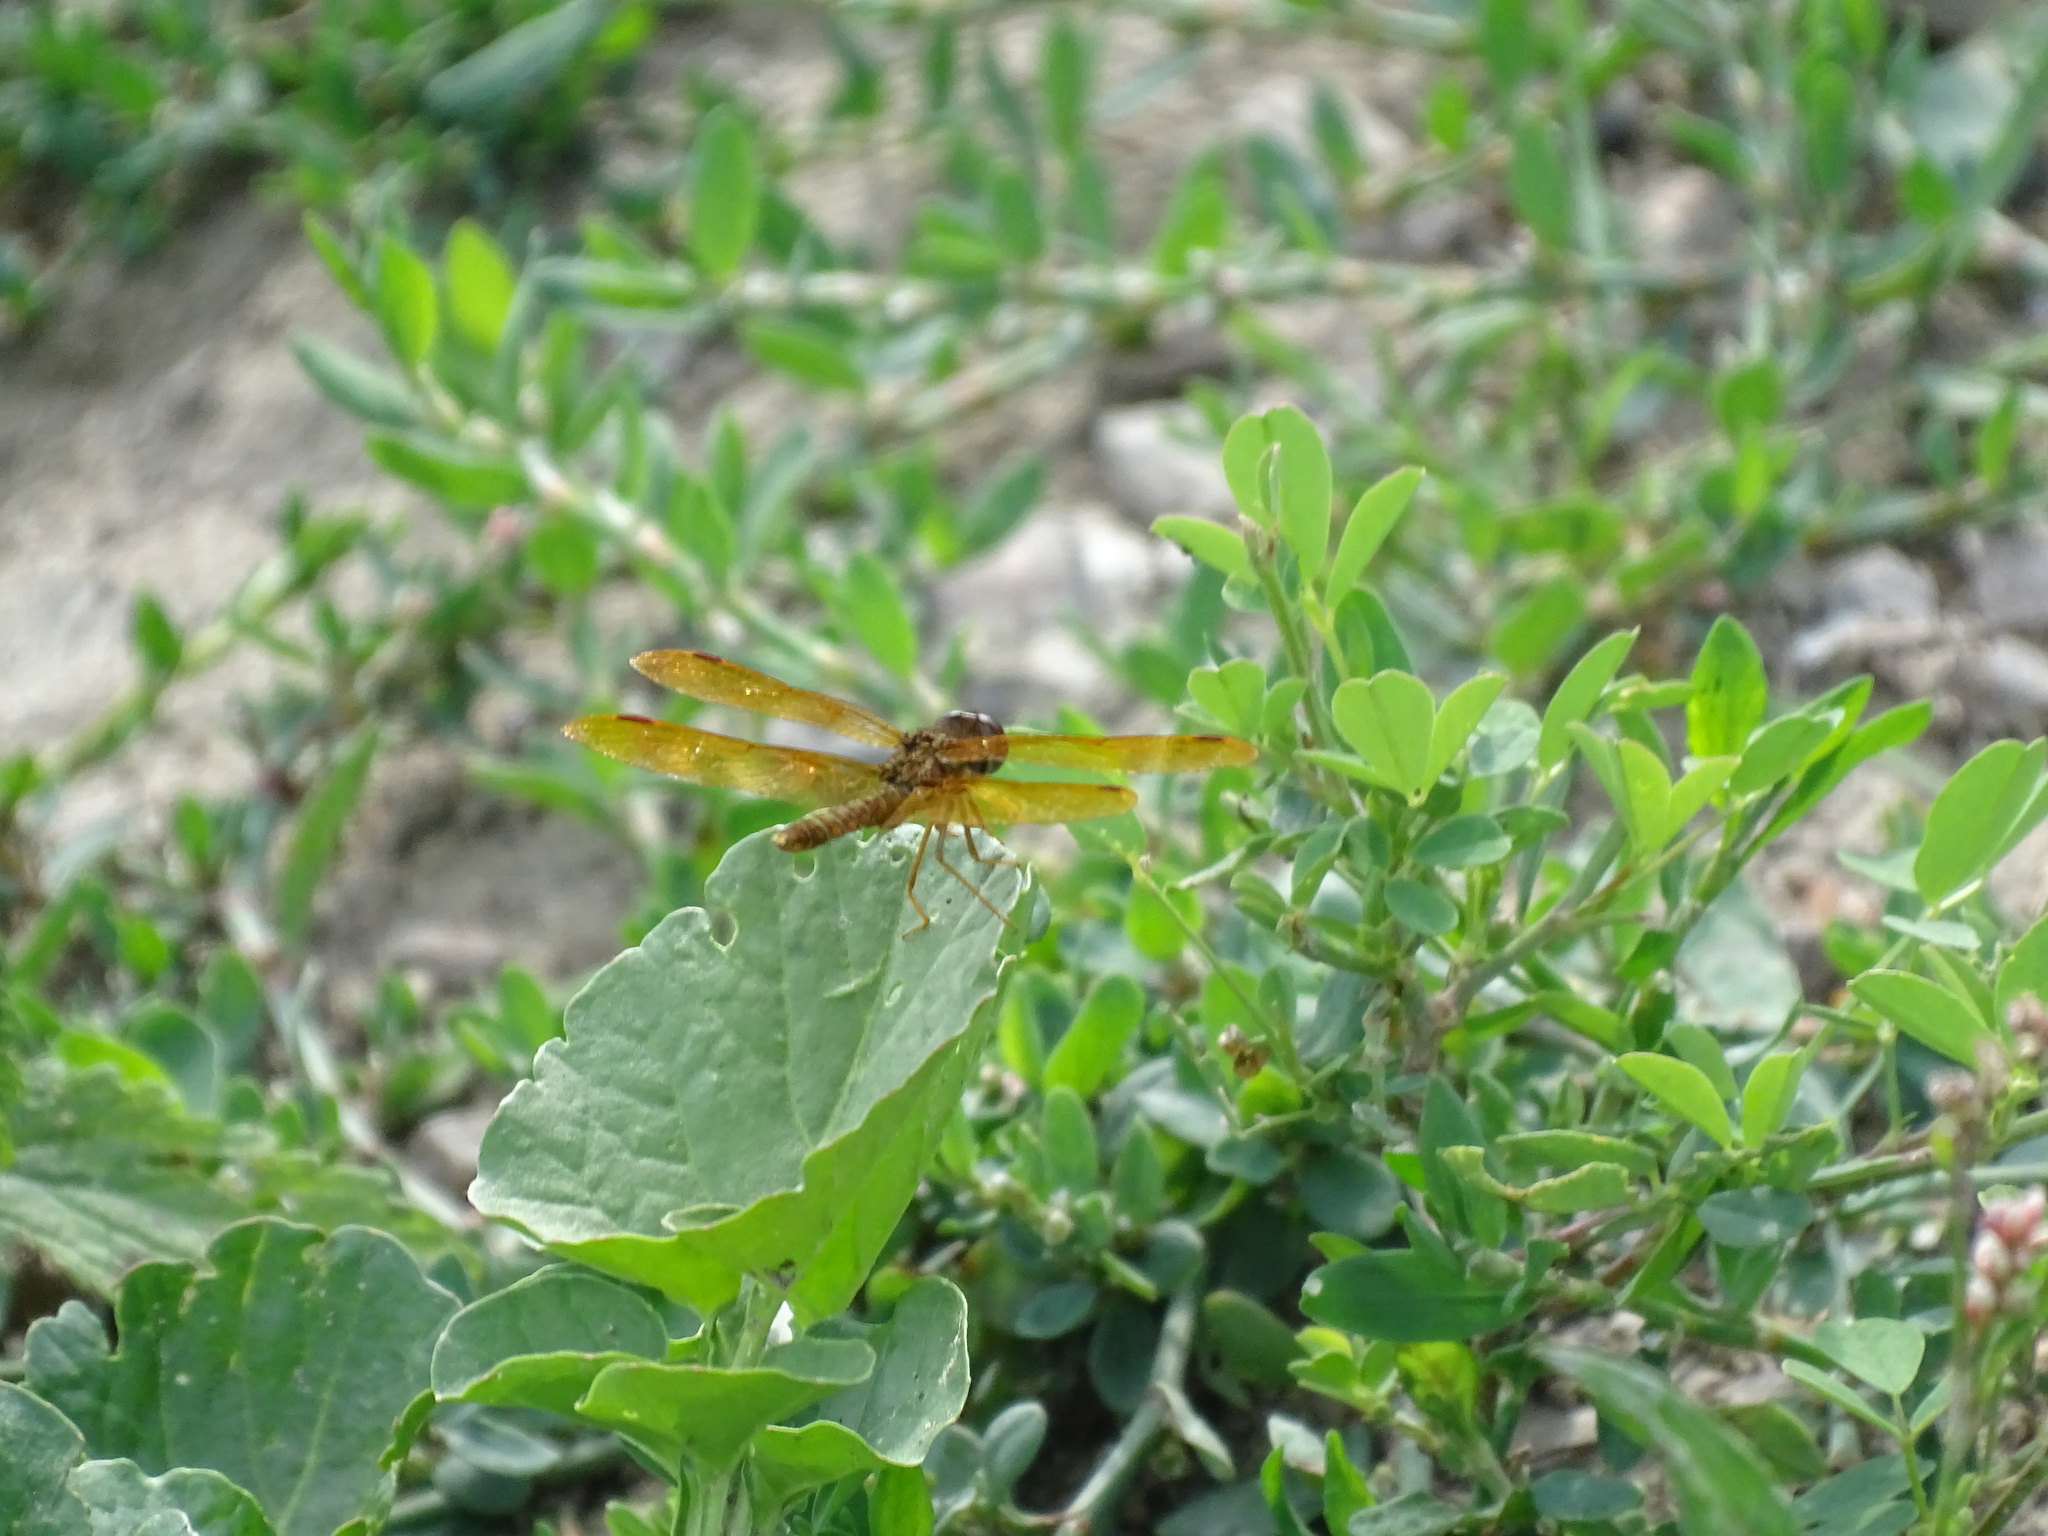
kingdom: Animalia
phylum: Arthropoda
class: Insecta
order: Odonata
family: Libellulidae
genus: Perithemis
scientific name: Perithemis tenera
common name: Eastern amberwing
